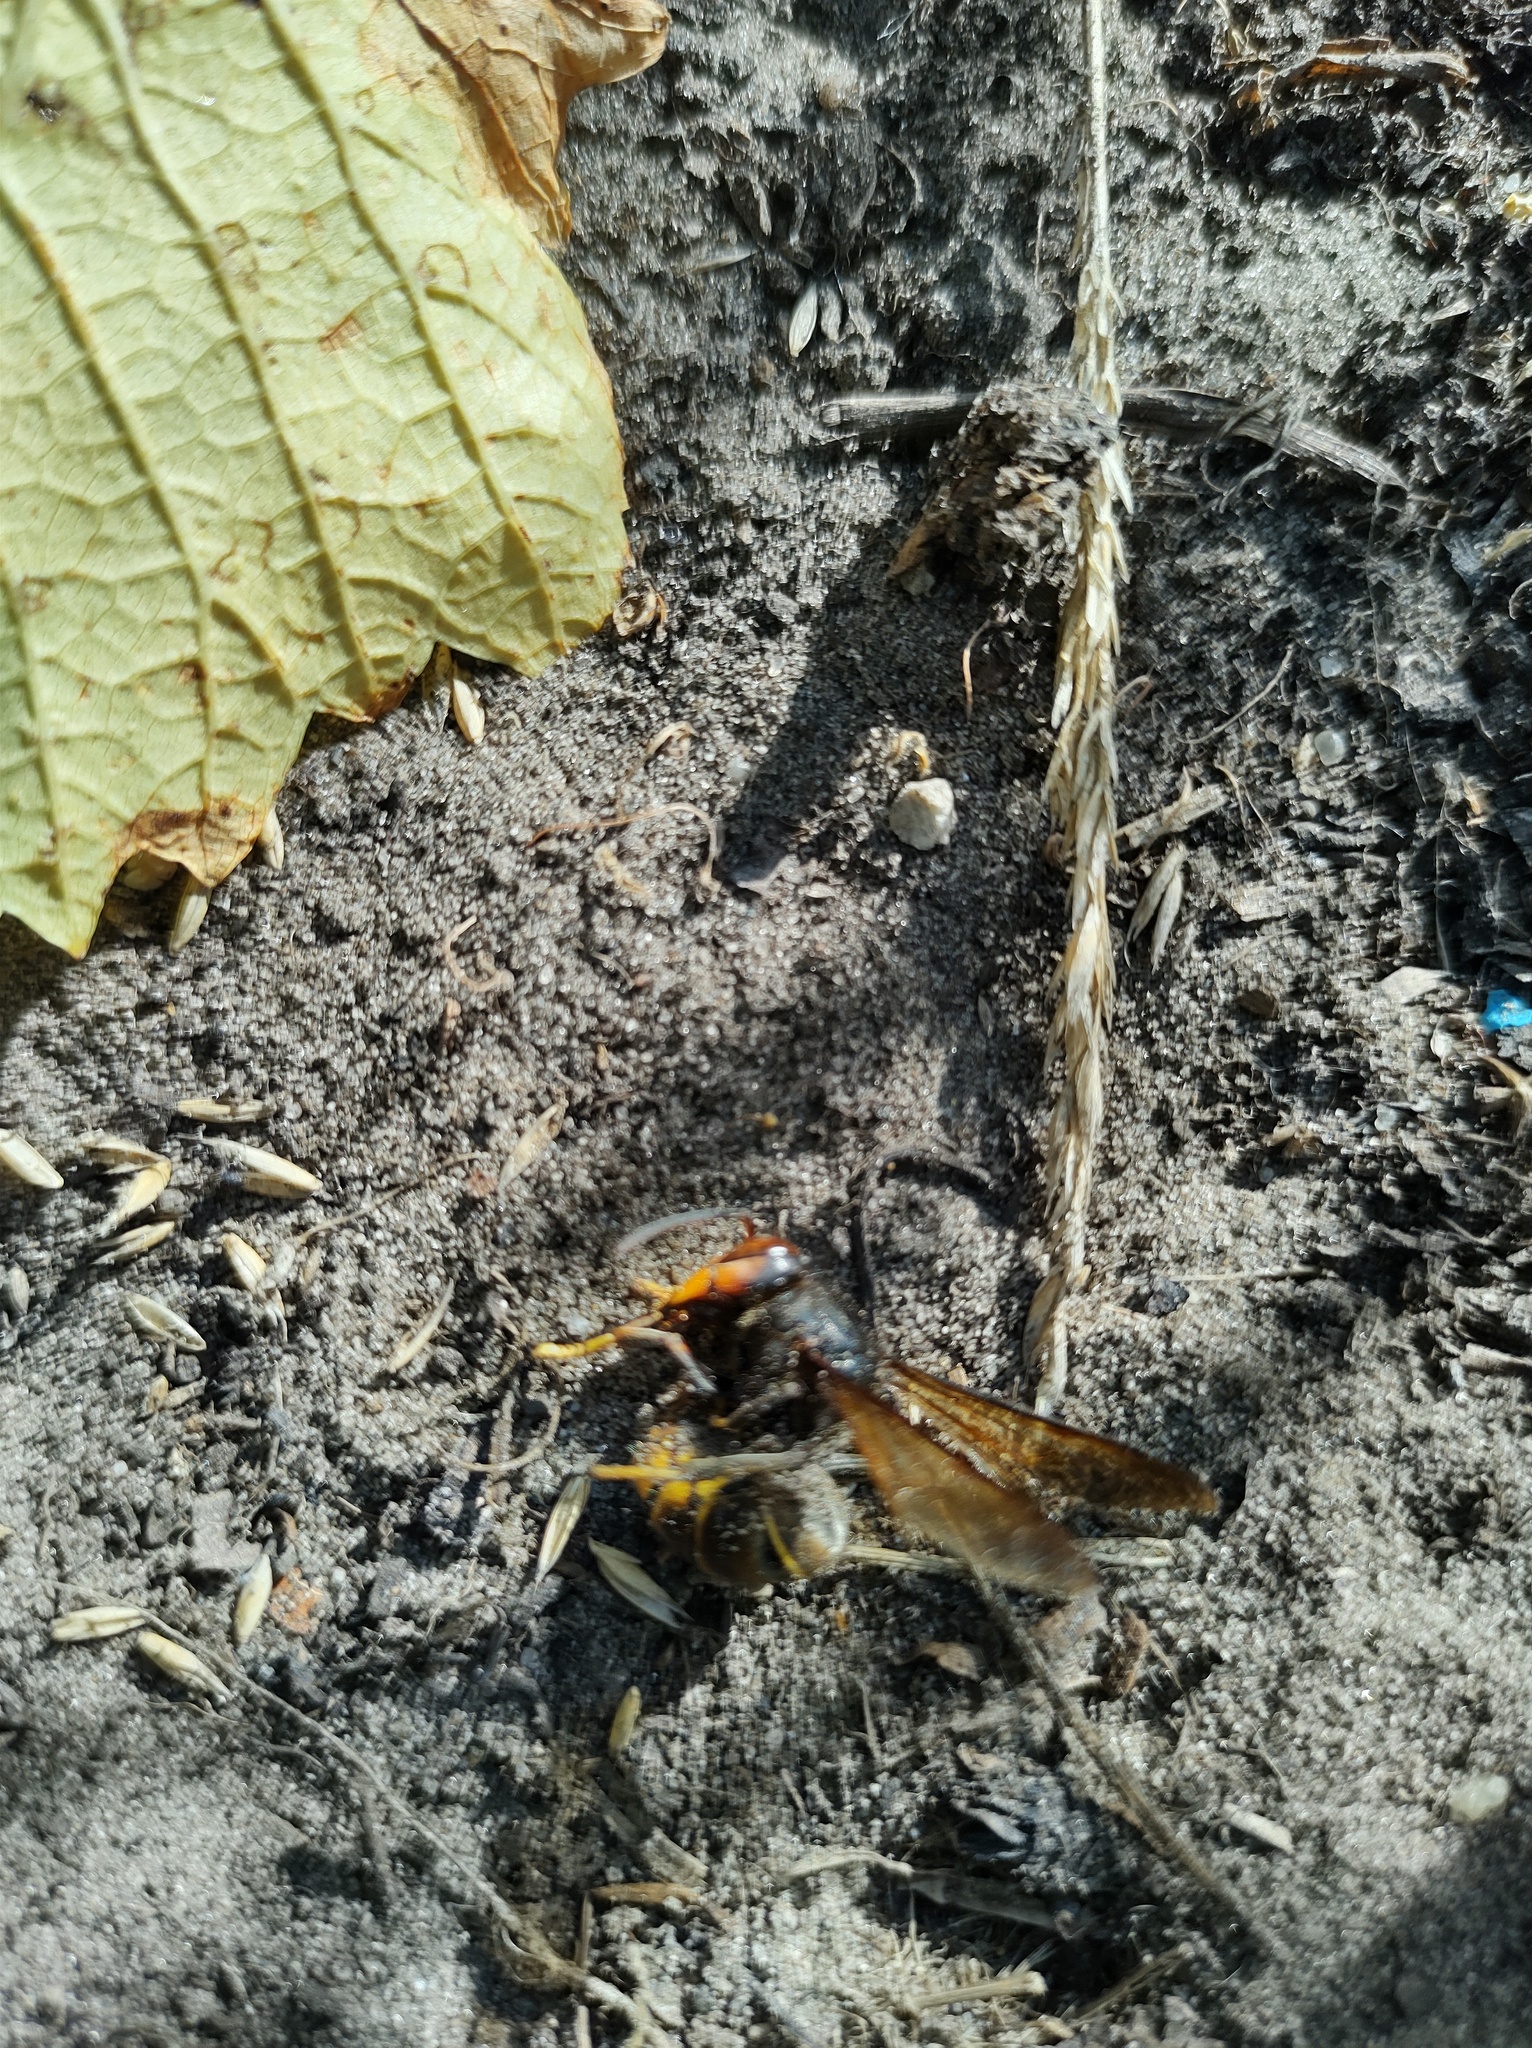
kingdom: Animalia
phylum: Arthropoda
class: Insecta
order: Hymenoptera
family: Vespidae
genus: Vespa
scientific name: Vespa velutina
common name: Asian hornet
